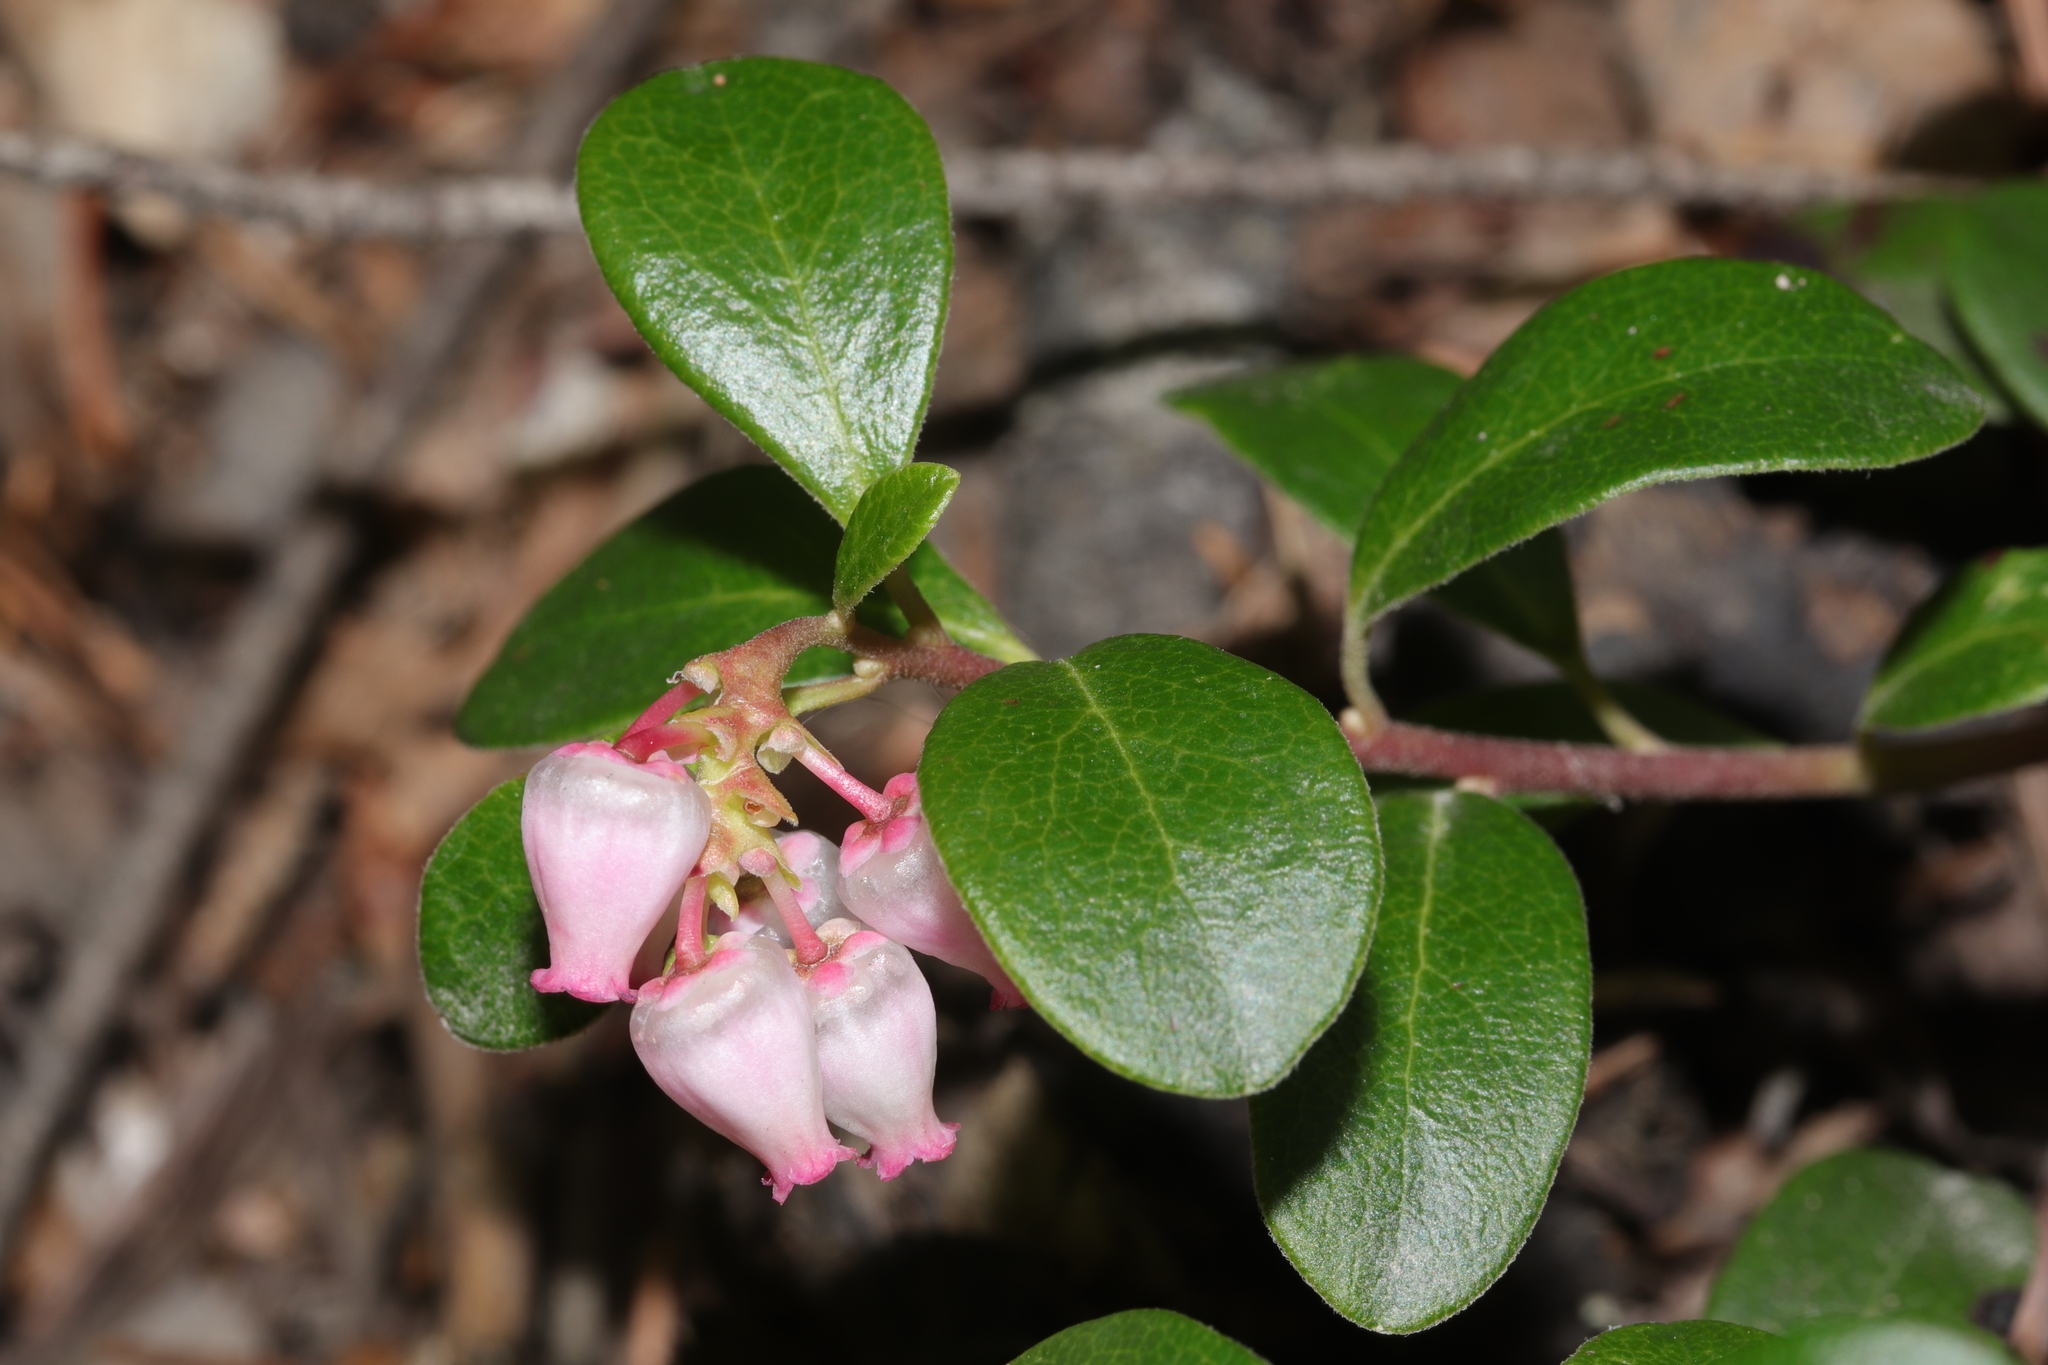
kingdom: Plantae
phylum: Tracheophyta
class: Magnoliopsida
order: Ericales
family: Ericaceae
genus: Arctostaphylos
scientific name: Arctostaphylos uva-ursi
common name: Bearberry
